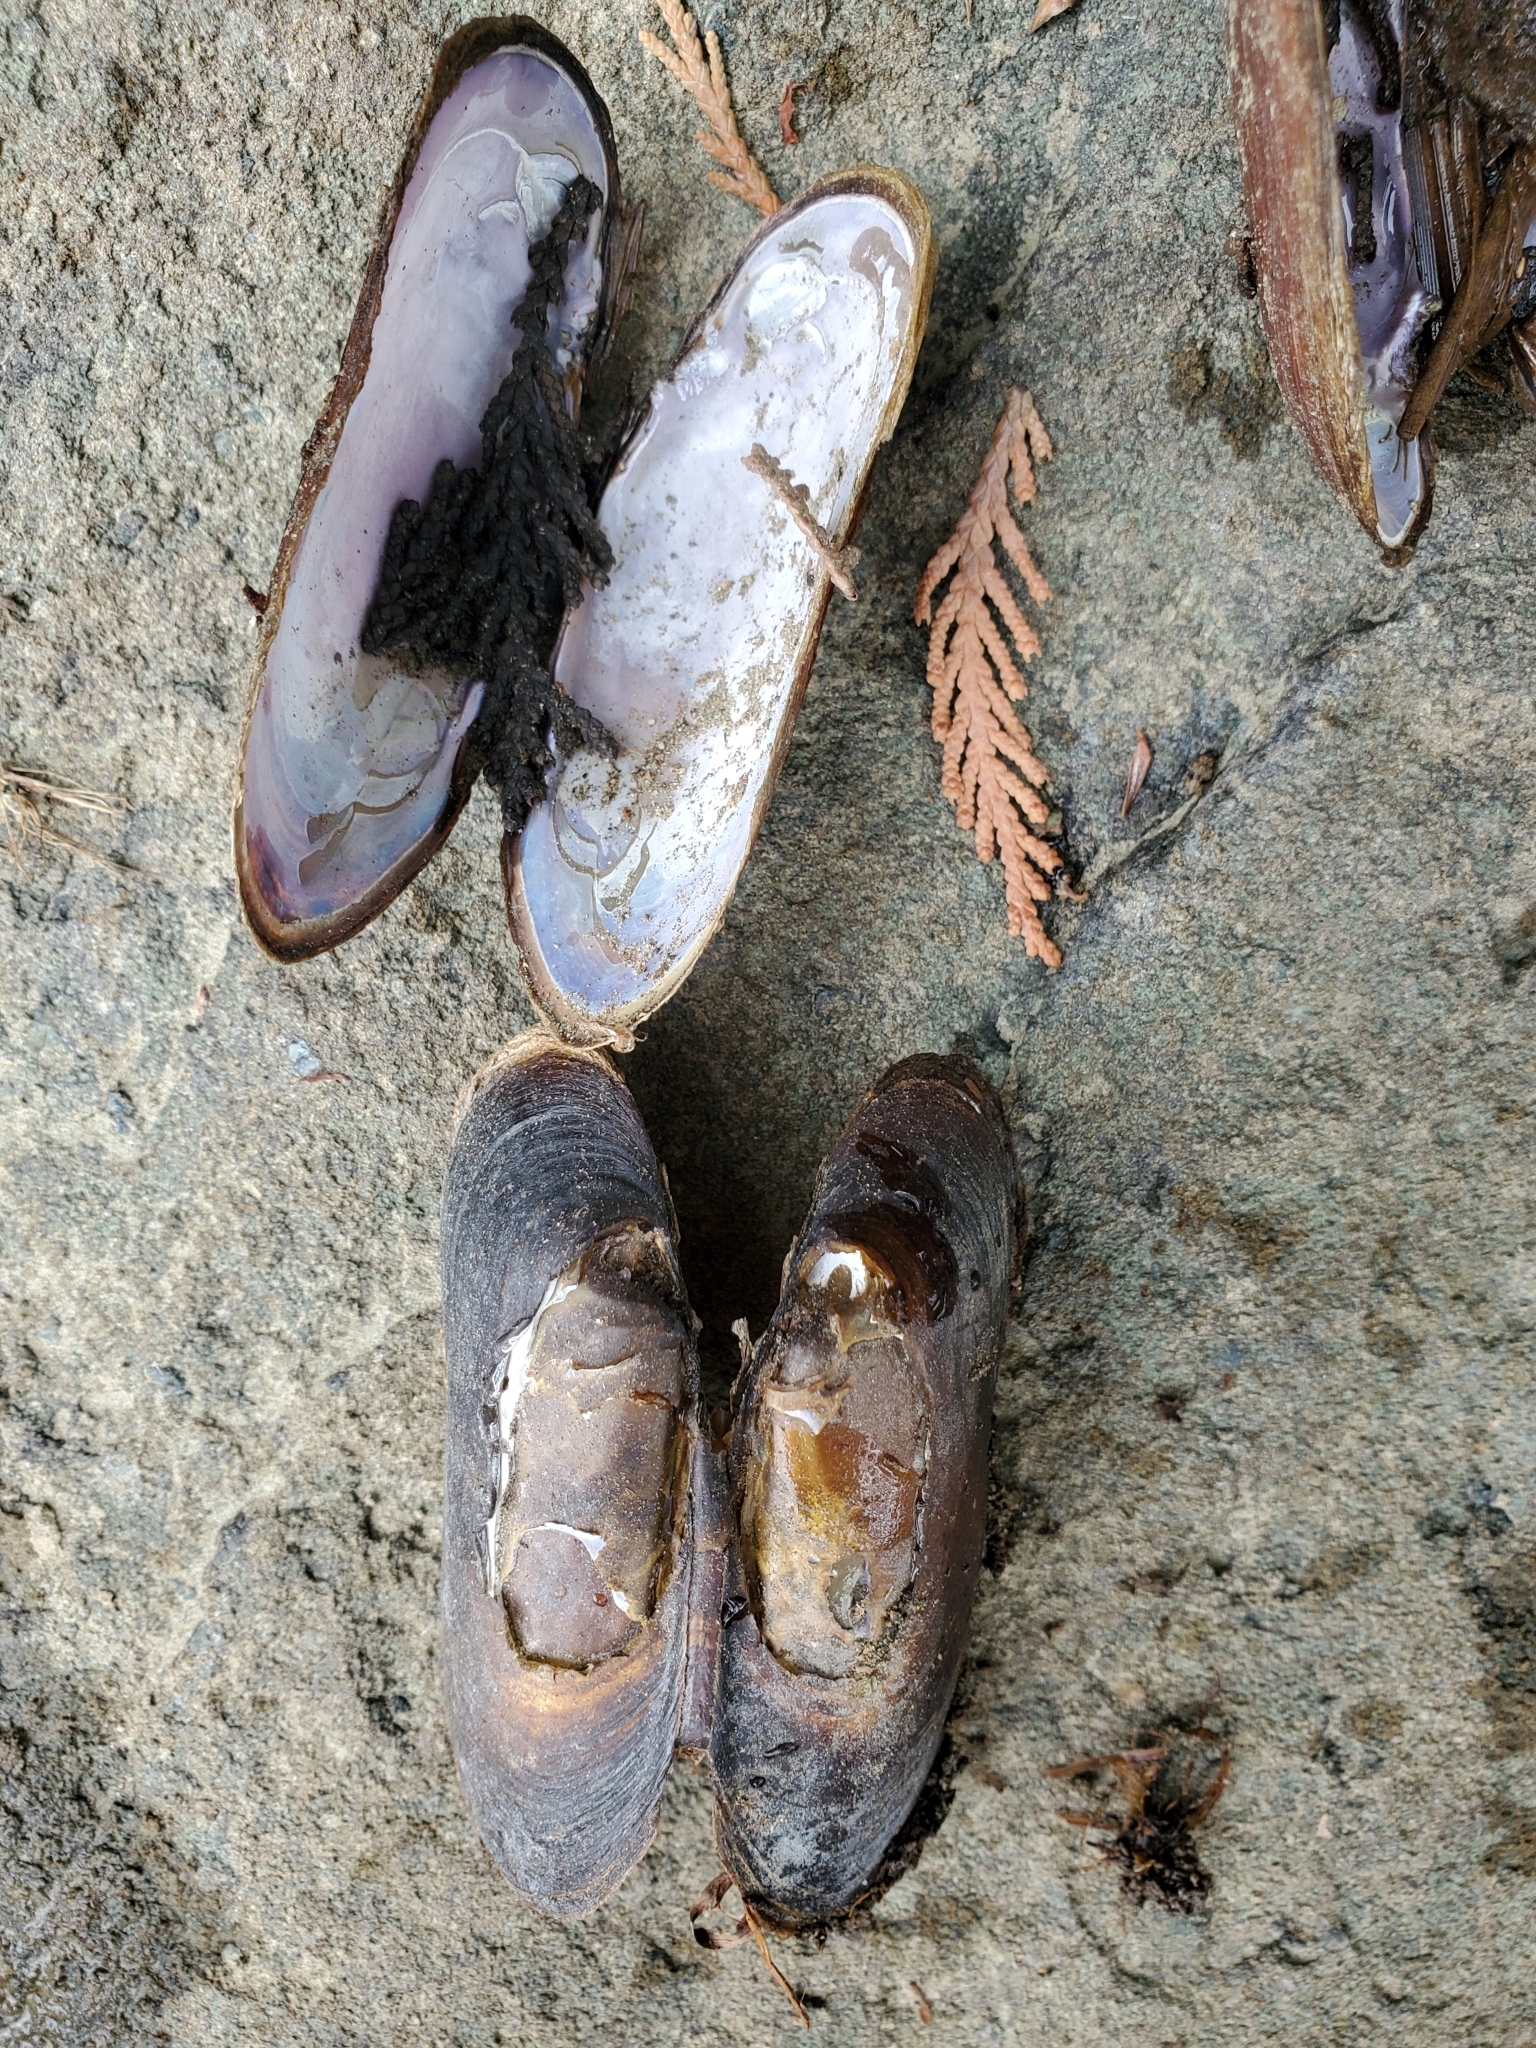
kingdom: Animalia
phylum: Mollusca
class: Bivalvia
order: Unionida
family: Margaritiferidae
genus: Margaritifera
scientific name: Margaritifera falcata
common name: Western pearlshell
